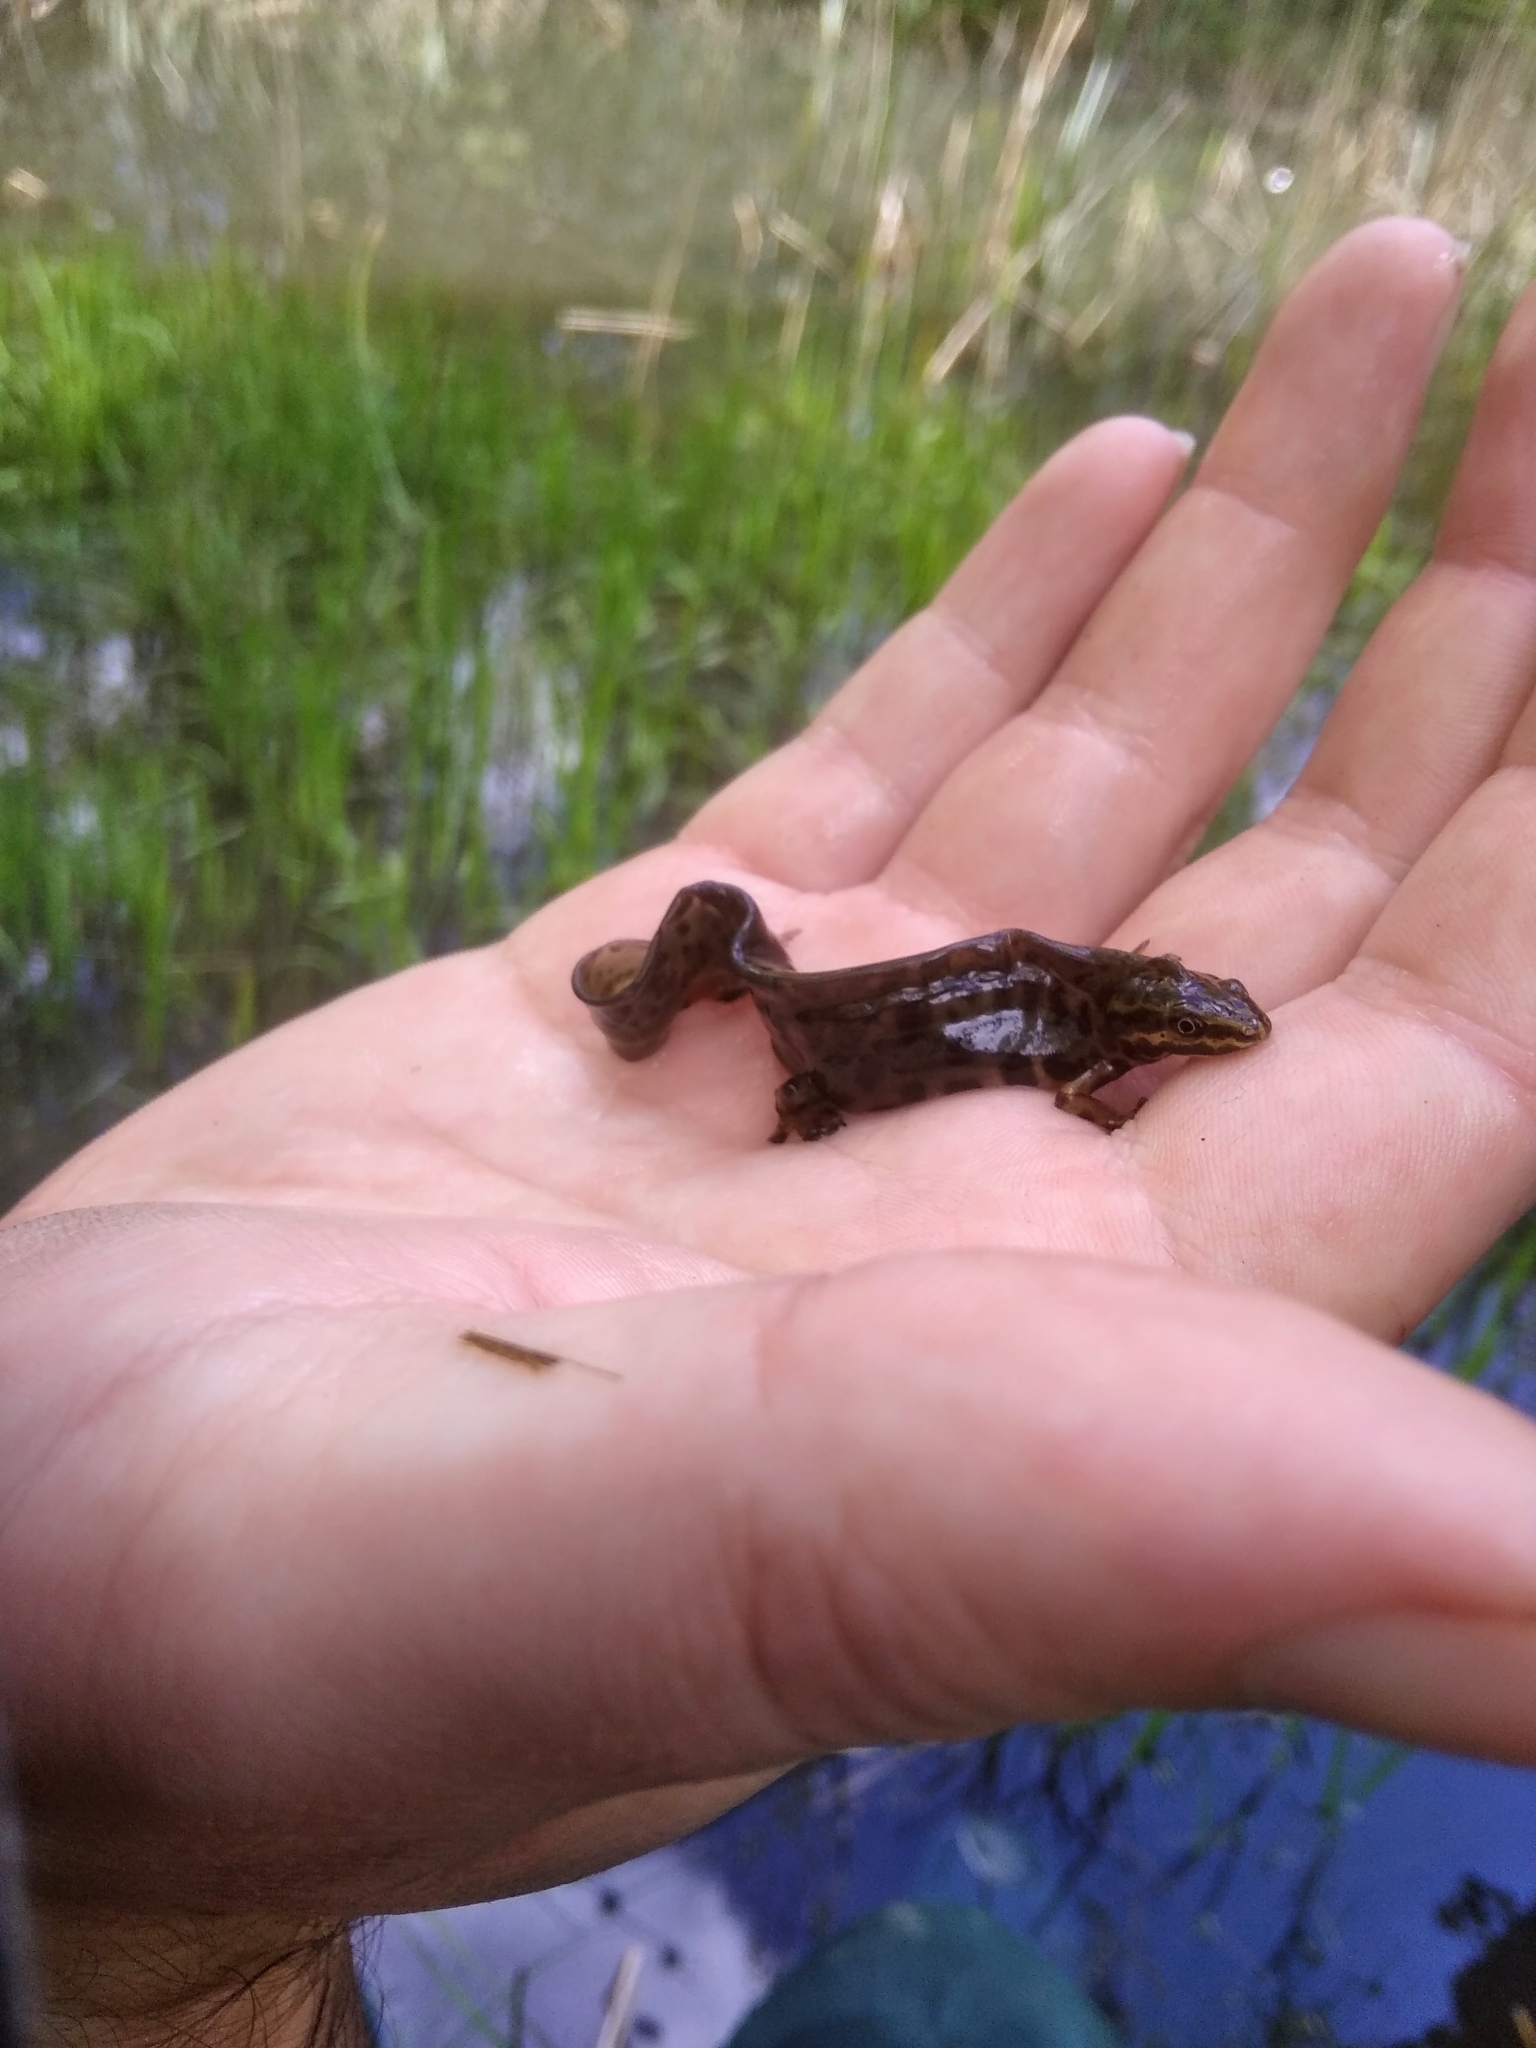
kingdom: Animalia
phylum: Chordata
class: Amphibia
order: Caudata
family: Salamandridae
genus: Lissotriton
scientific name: Lissotriton vulgaris
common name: Smooth newt
